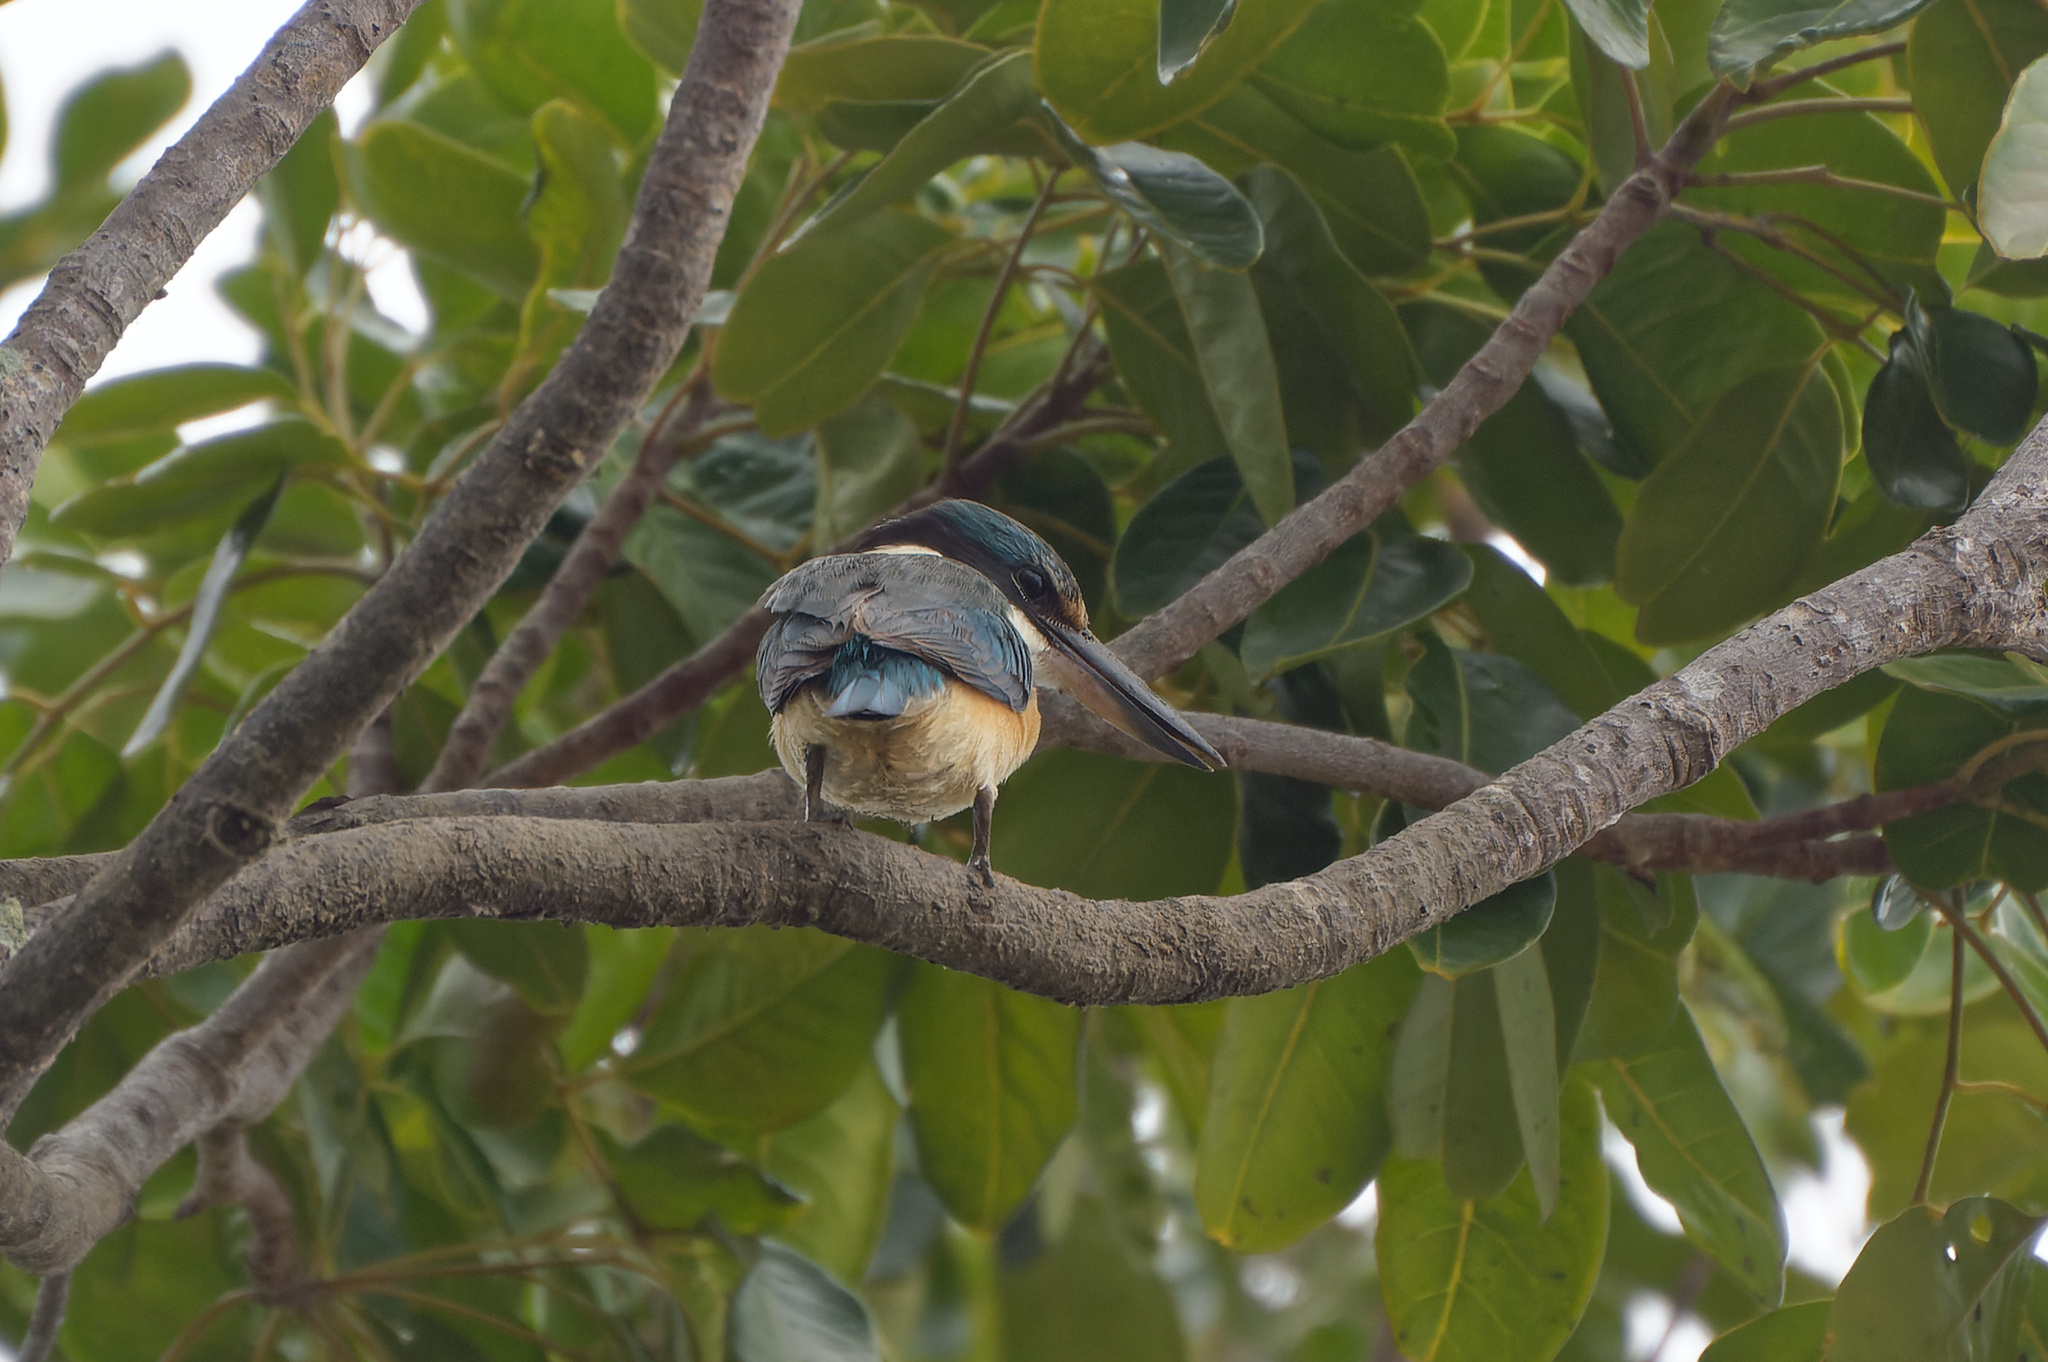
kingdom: Animalia
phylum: Chordata
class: Aves
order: Coraciiformes
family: Alcedinidae
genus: Todiramphus
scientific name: Todiramphus sanctus
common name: Sacred kingfisher
